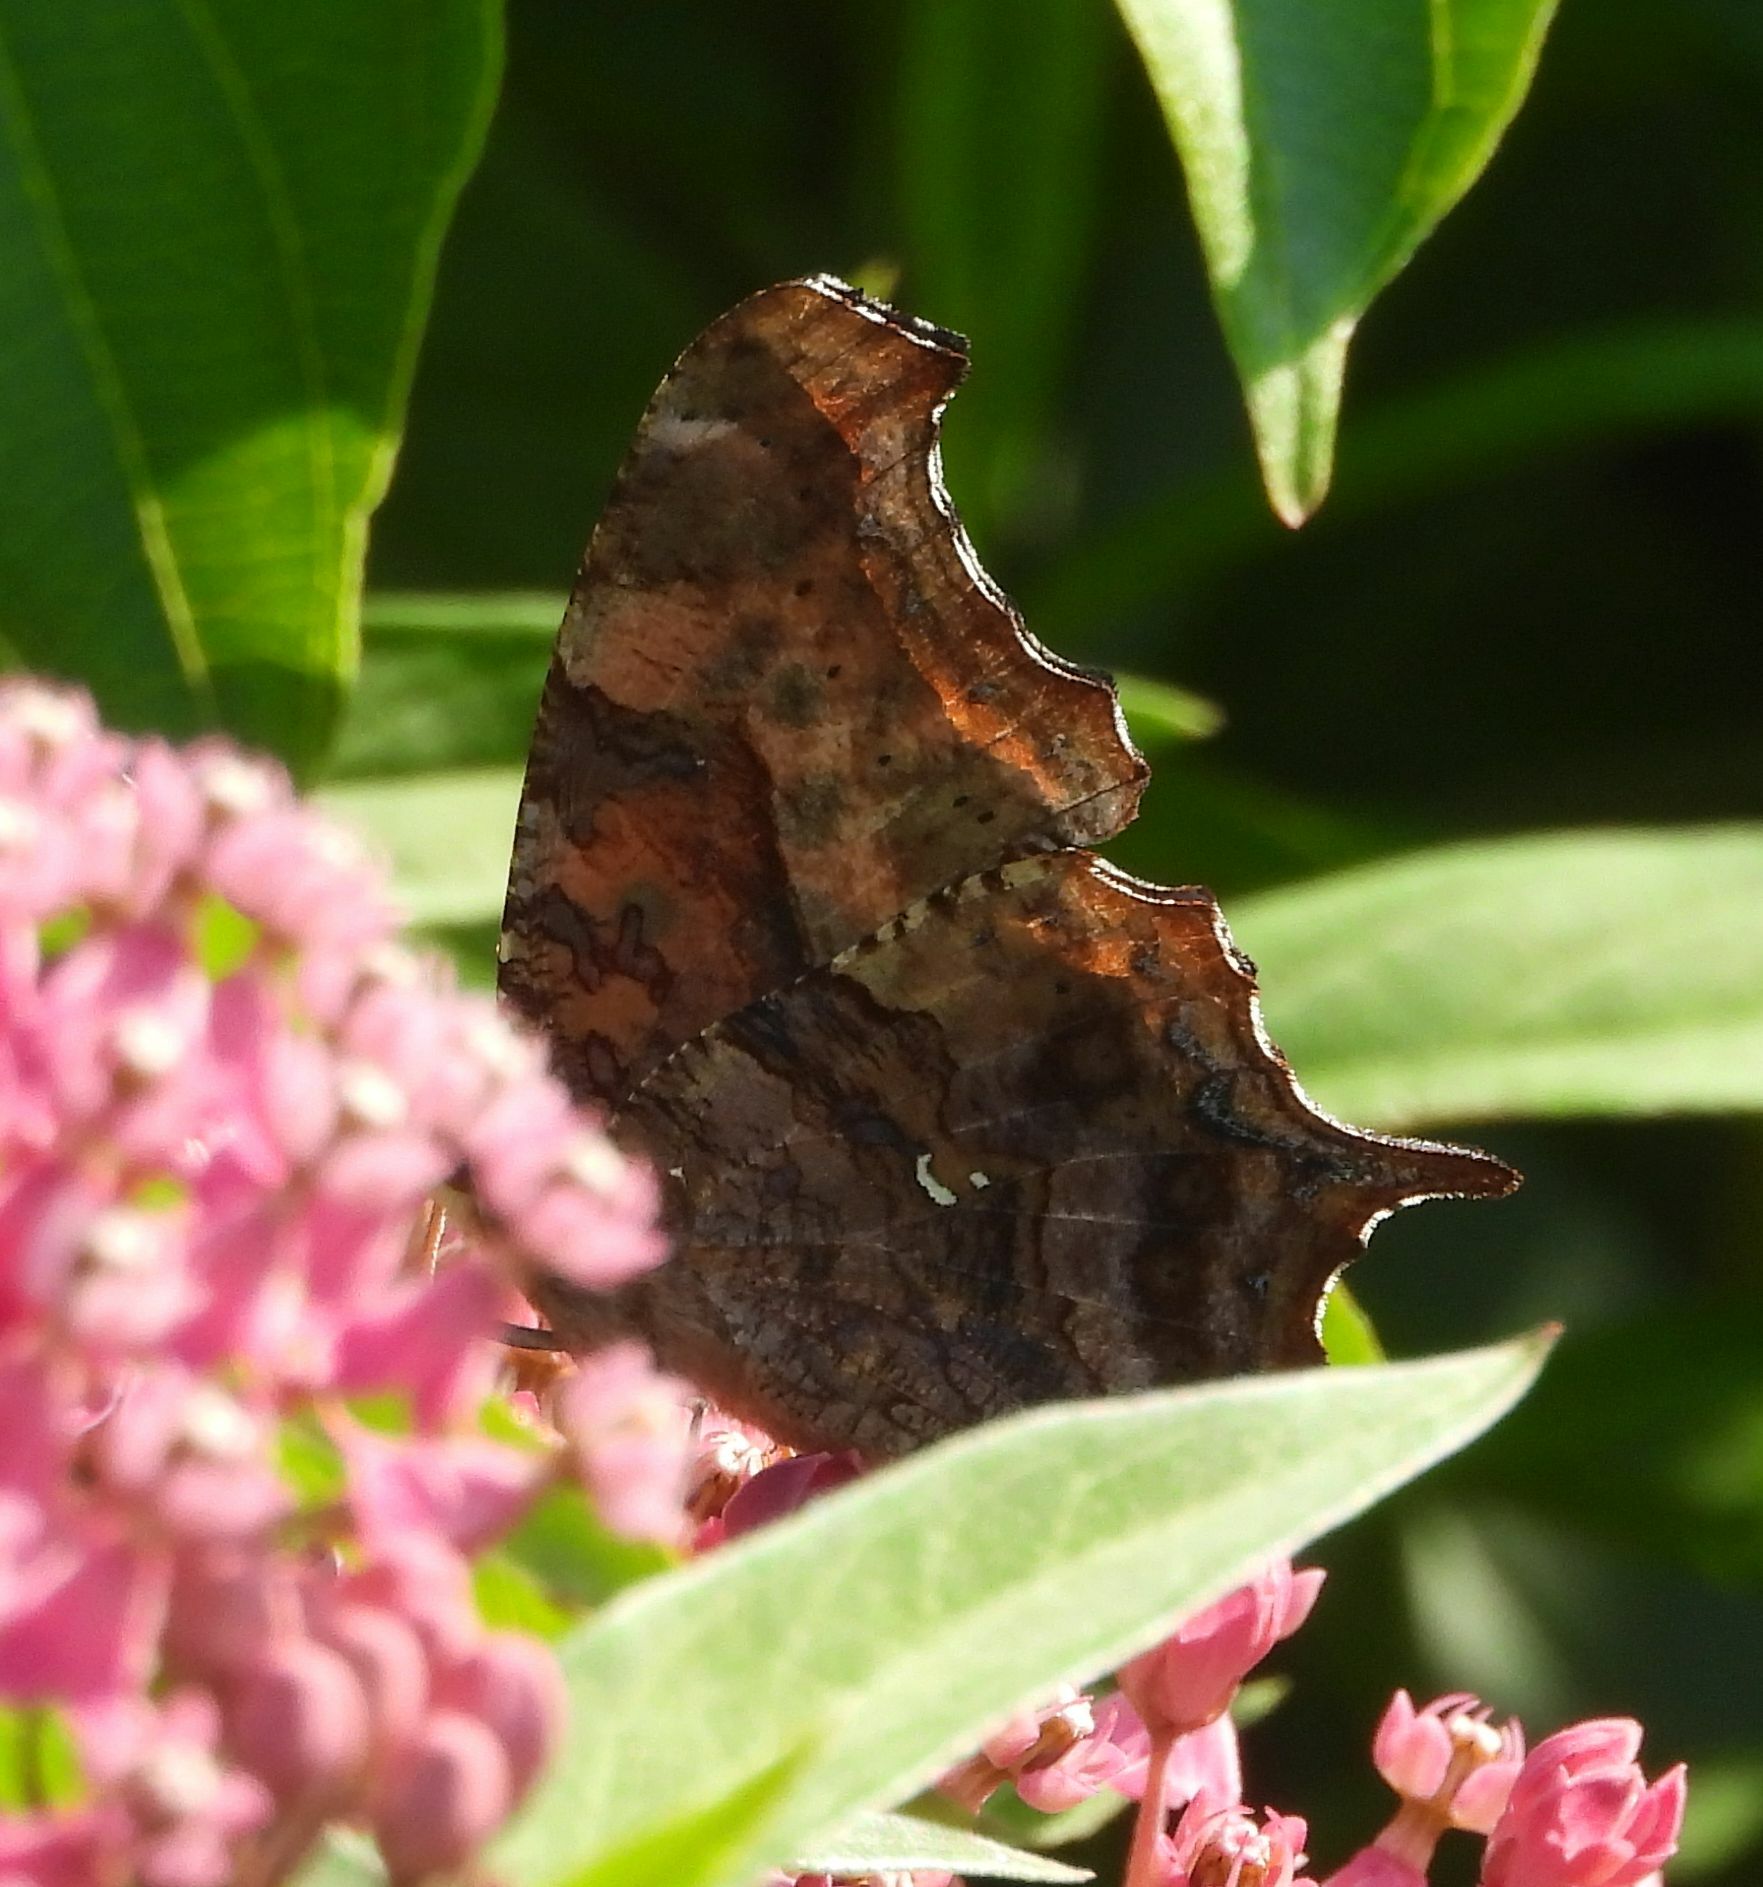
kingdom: Animalia
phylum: Arthropoda
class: Insecta
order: Lepidoptera
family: Nymphalidae
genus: Polygonia
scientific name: Polygonia interrogationis
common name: Question mark
